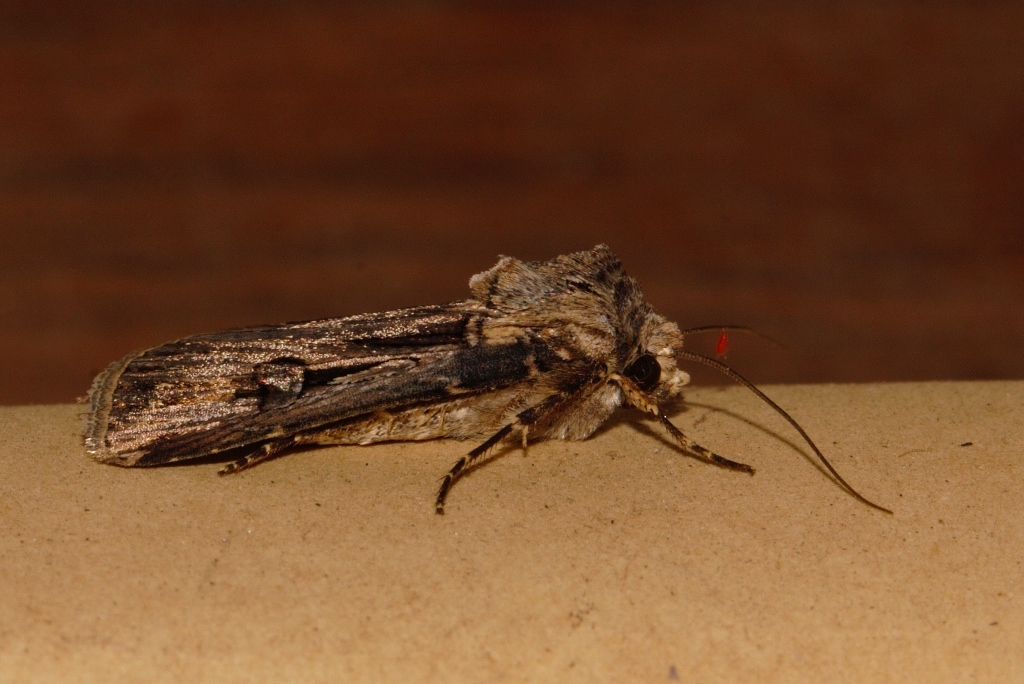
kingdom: Animalia
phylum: Arthropoda
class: Insecta
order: Lepidoptera
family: Noctuidae
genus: Agrotis
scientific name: Agrotis
